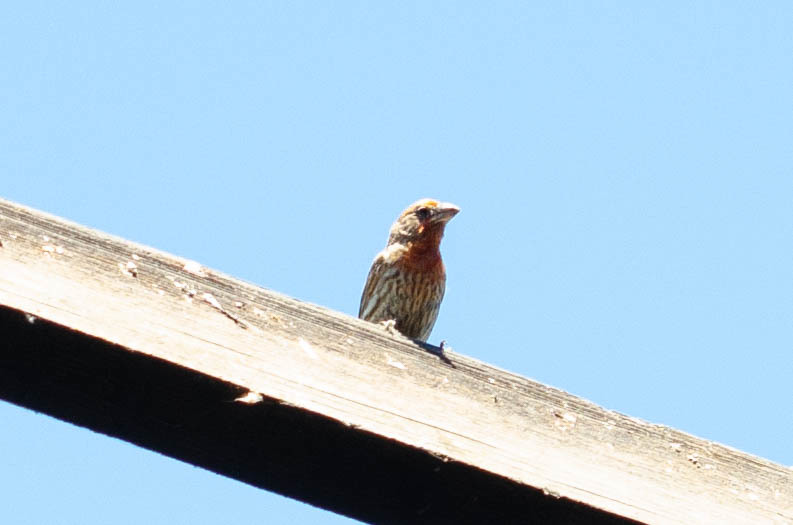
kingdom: Animalia
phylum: Chordata
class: Aves
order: Passeriformes
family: Fringillidae
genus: Haemorhous
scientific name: Haemorhous mexicanus
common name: House finch
